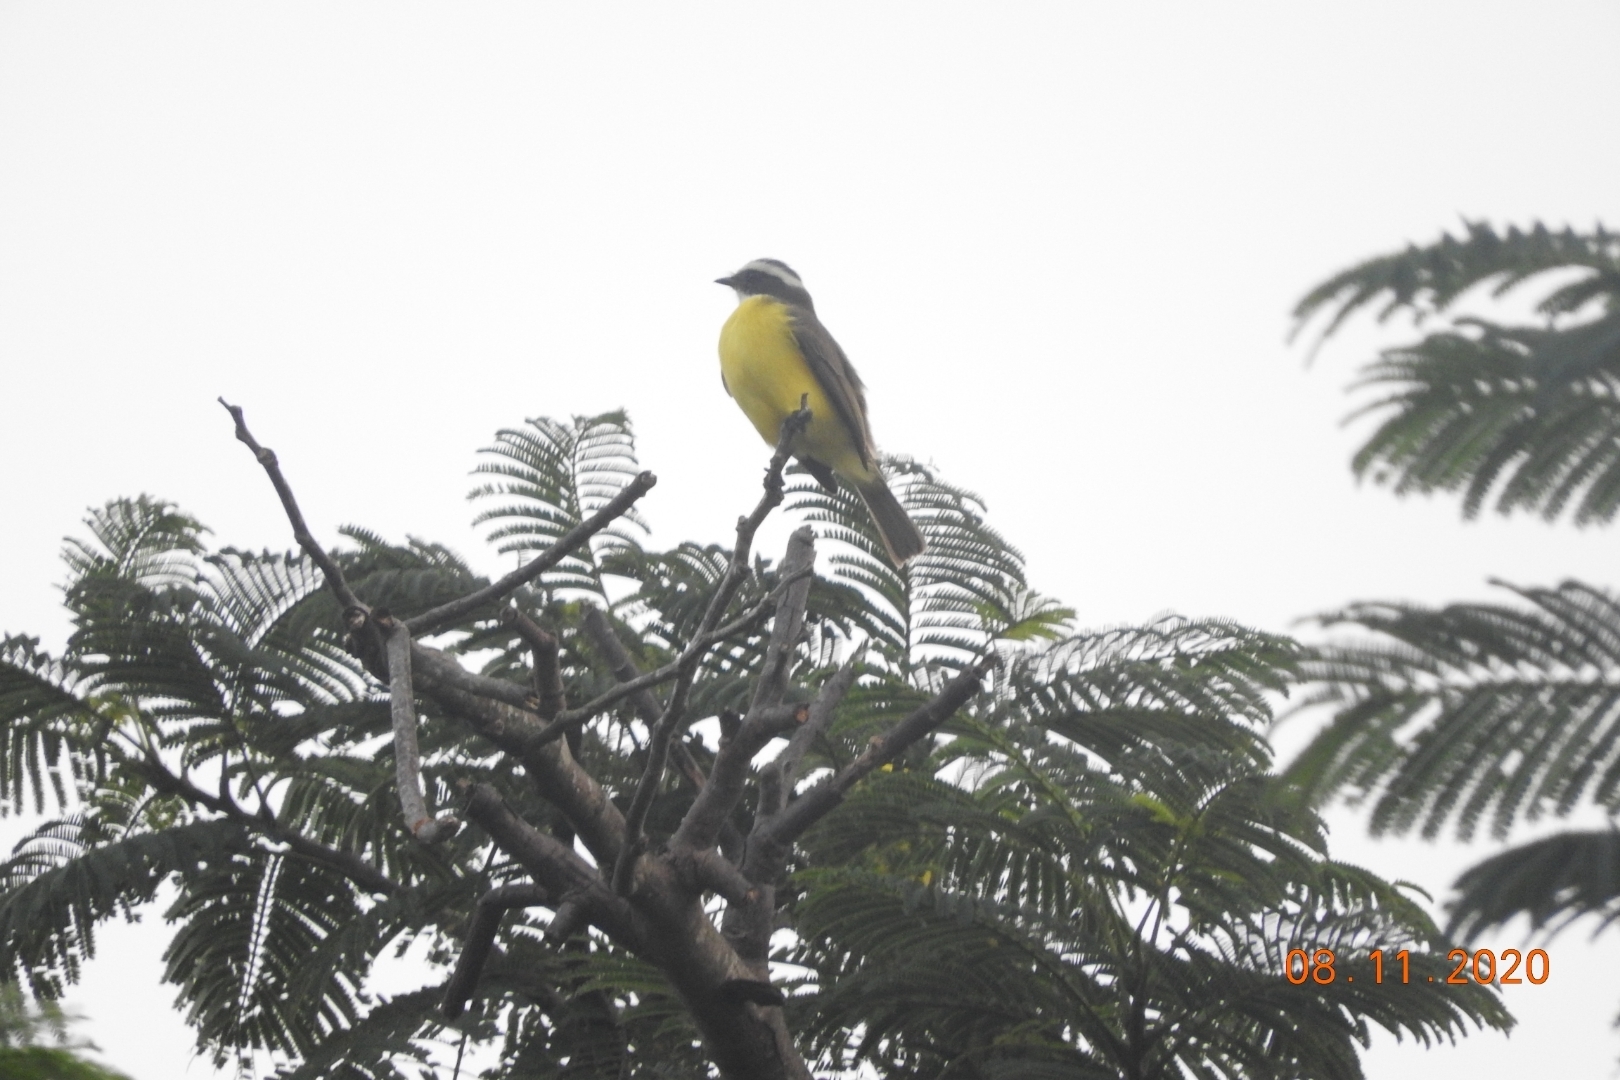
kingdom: Animalia
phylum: Chordata
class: Aves
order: Passeriformes
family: Tyrannidae
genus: Myiozetetes
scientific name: Myiozetetes similis
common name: Social flycatcher
